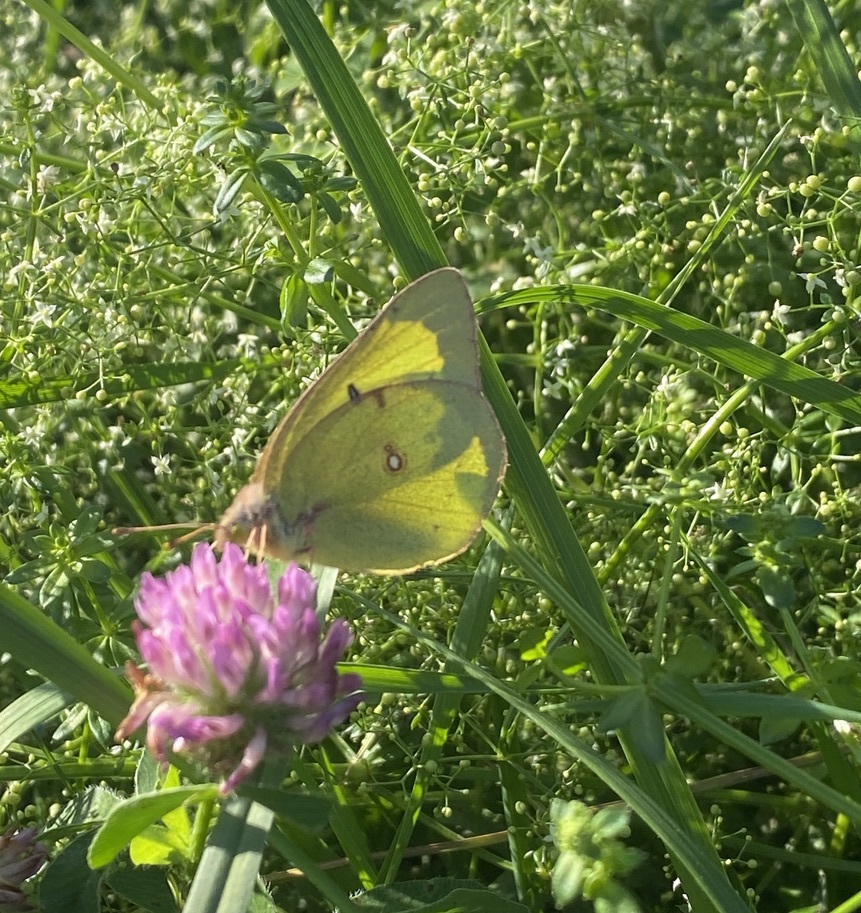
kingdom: Animalia
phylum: Arthropoda
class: Insecta
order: Lepidoptera
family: Pieridae
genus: Colias
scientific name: Colias philodice
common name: Clouded sulphur
